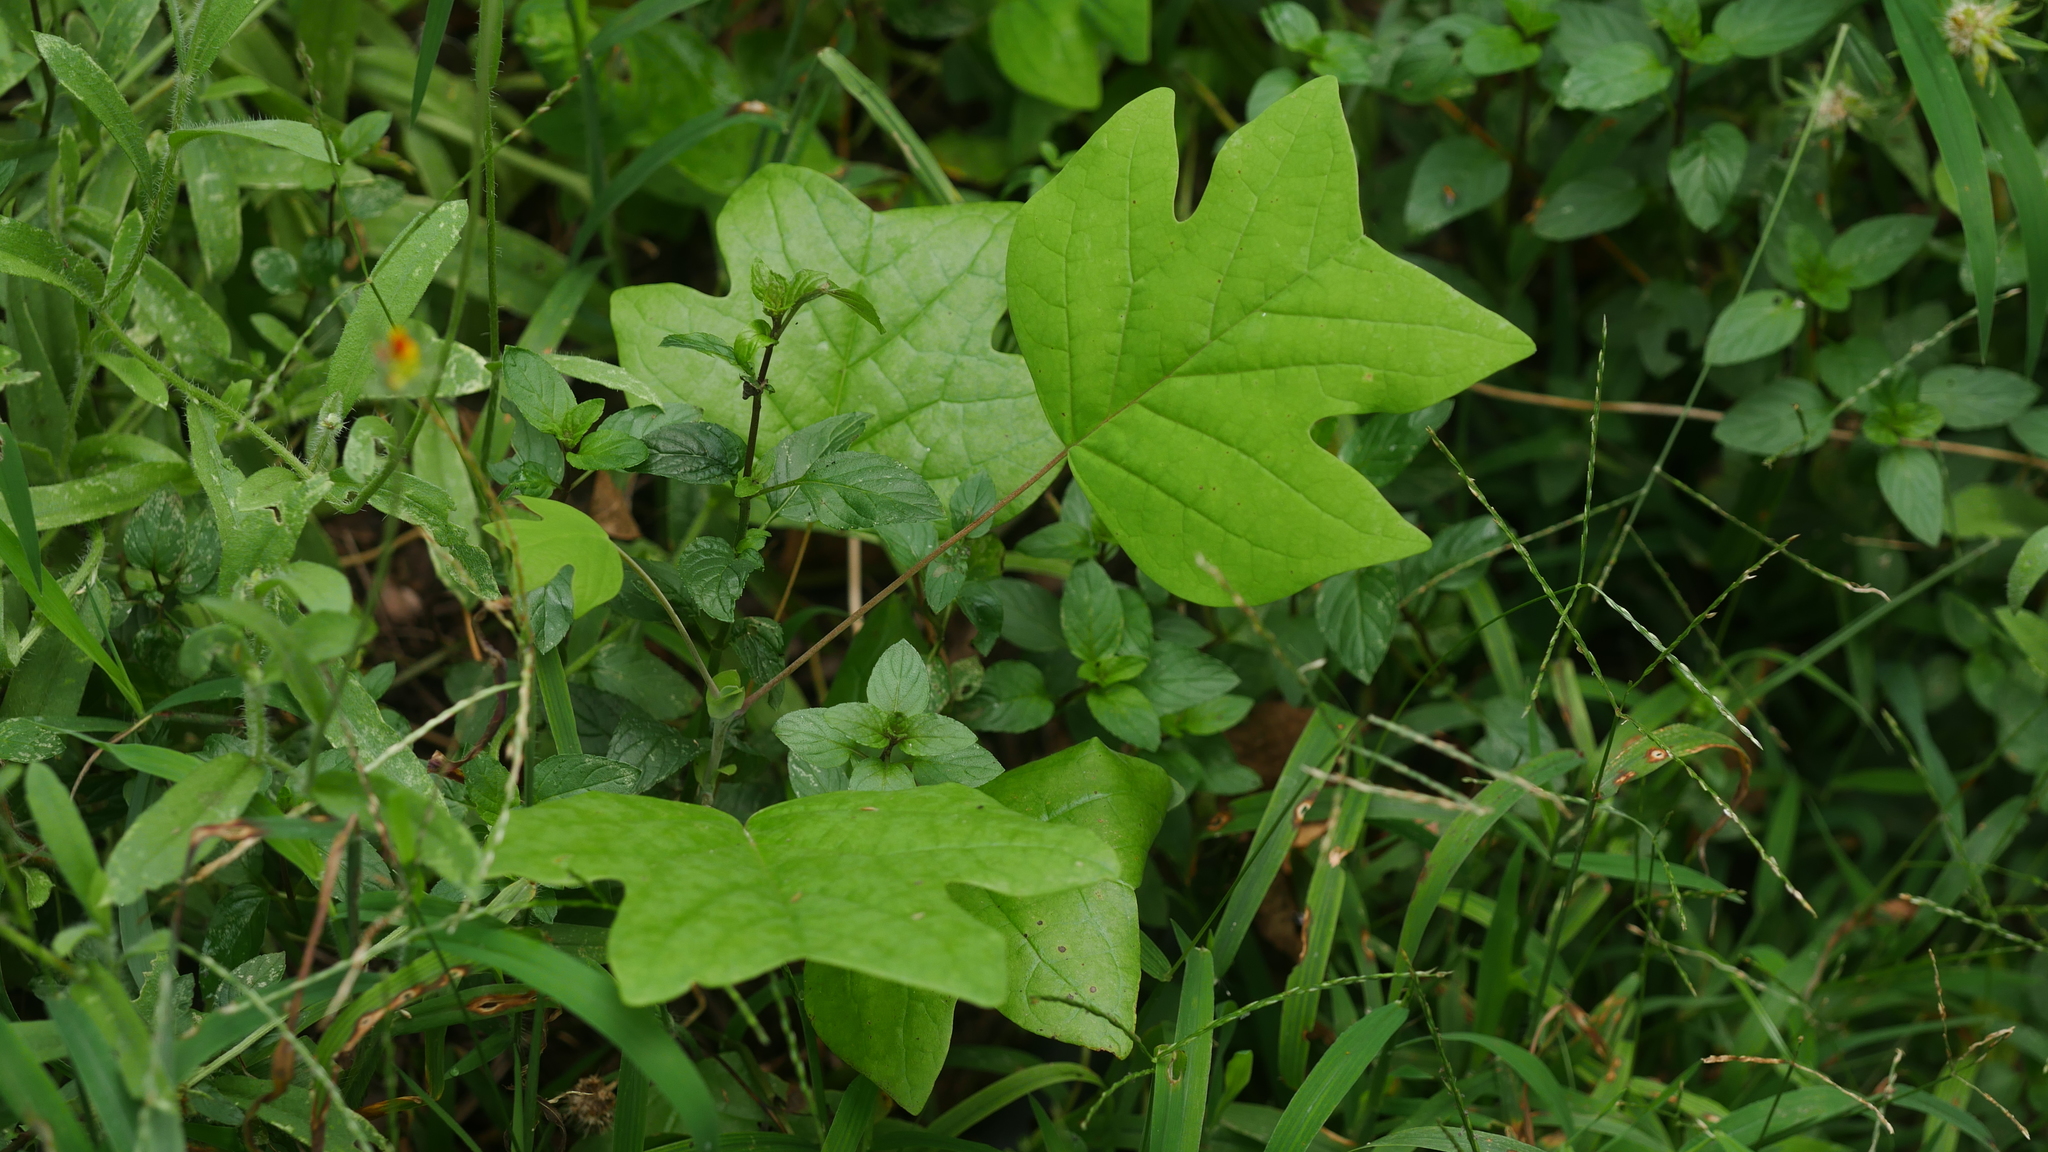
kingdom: Plantae
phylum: Tracheophyta
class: Magnoliopsida
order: Magnoliales
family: Magnoliaceae
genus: Liriodendron
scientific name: Liriodendron tulipifera
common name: Tulip tree
